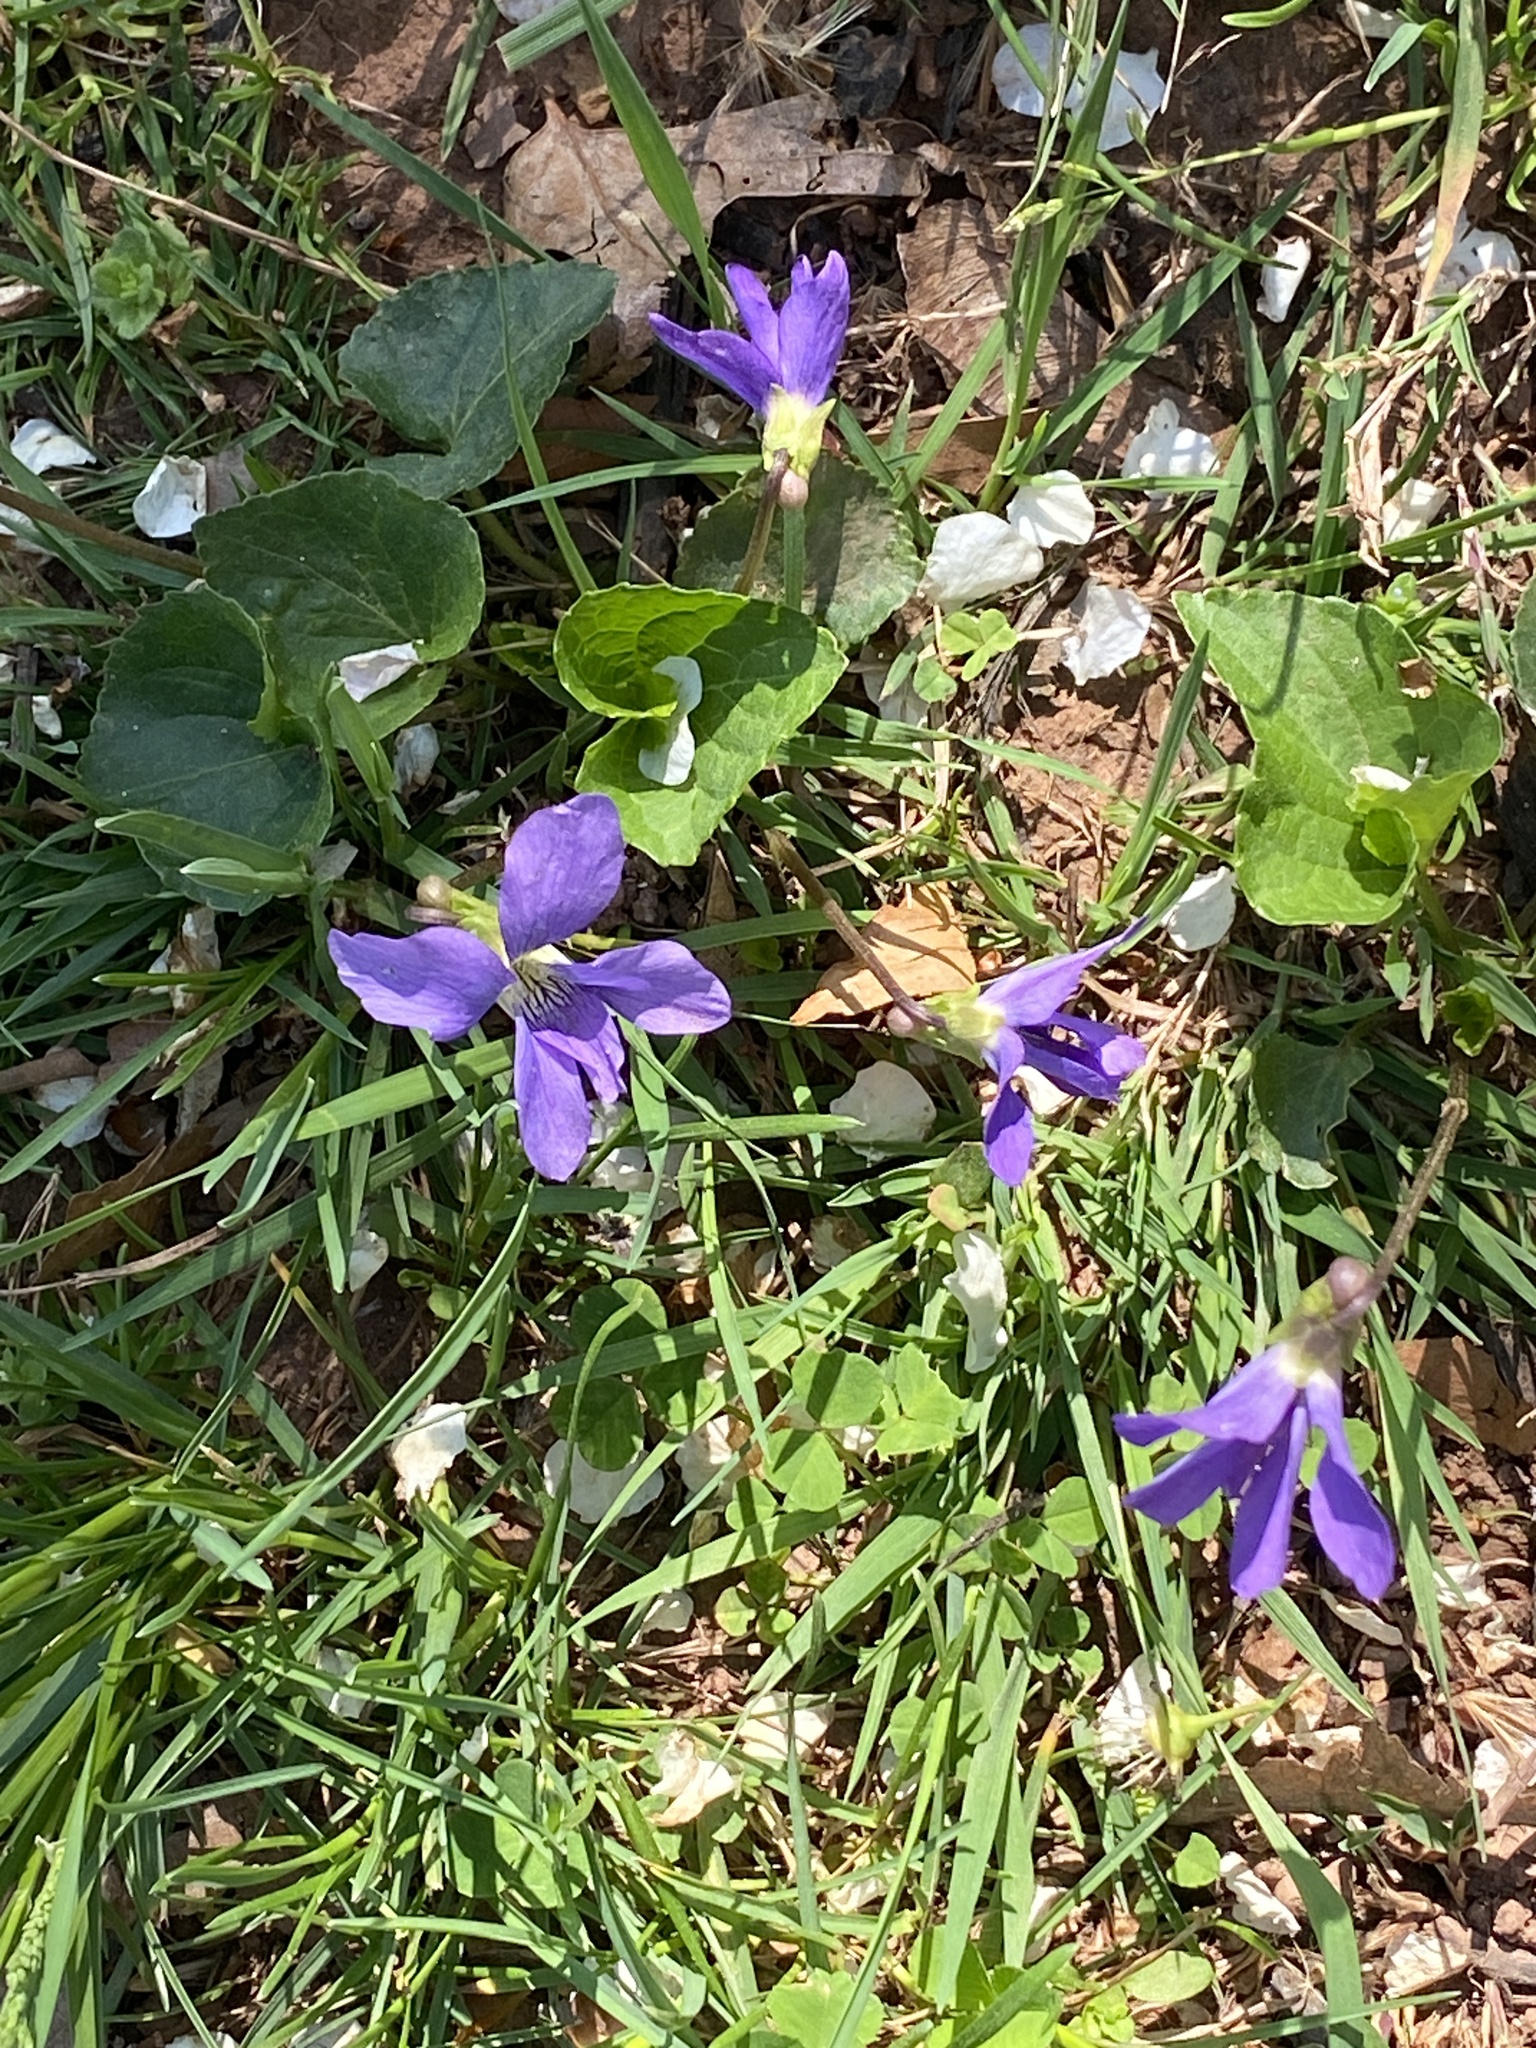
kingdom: Plantae
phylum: Tracheophyta
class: Magnoliopsida
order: Malpighiales
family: Violaceae
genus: Viola
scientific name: Viola sororia
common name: Dooryard violet
